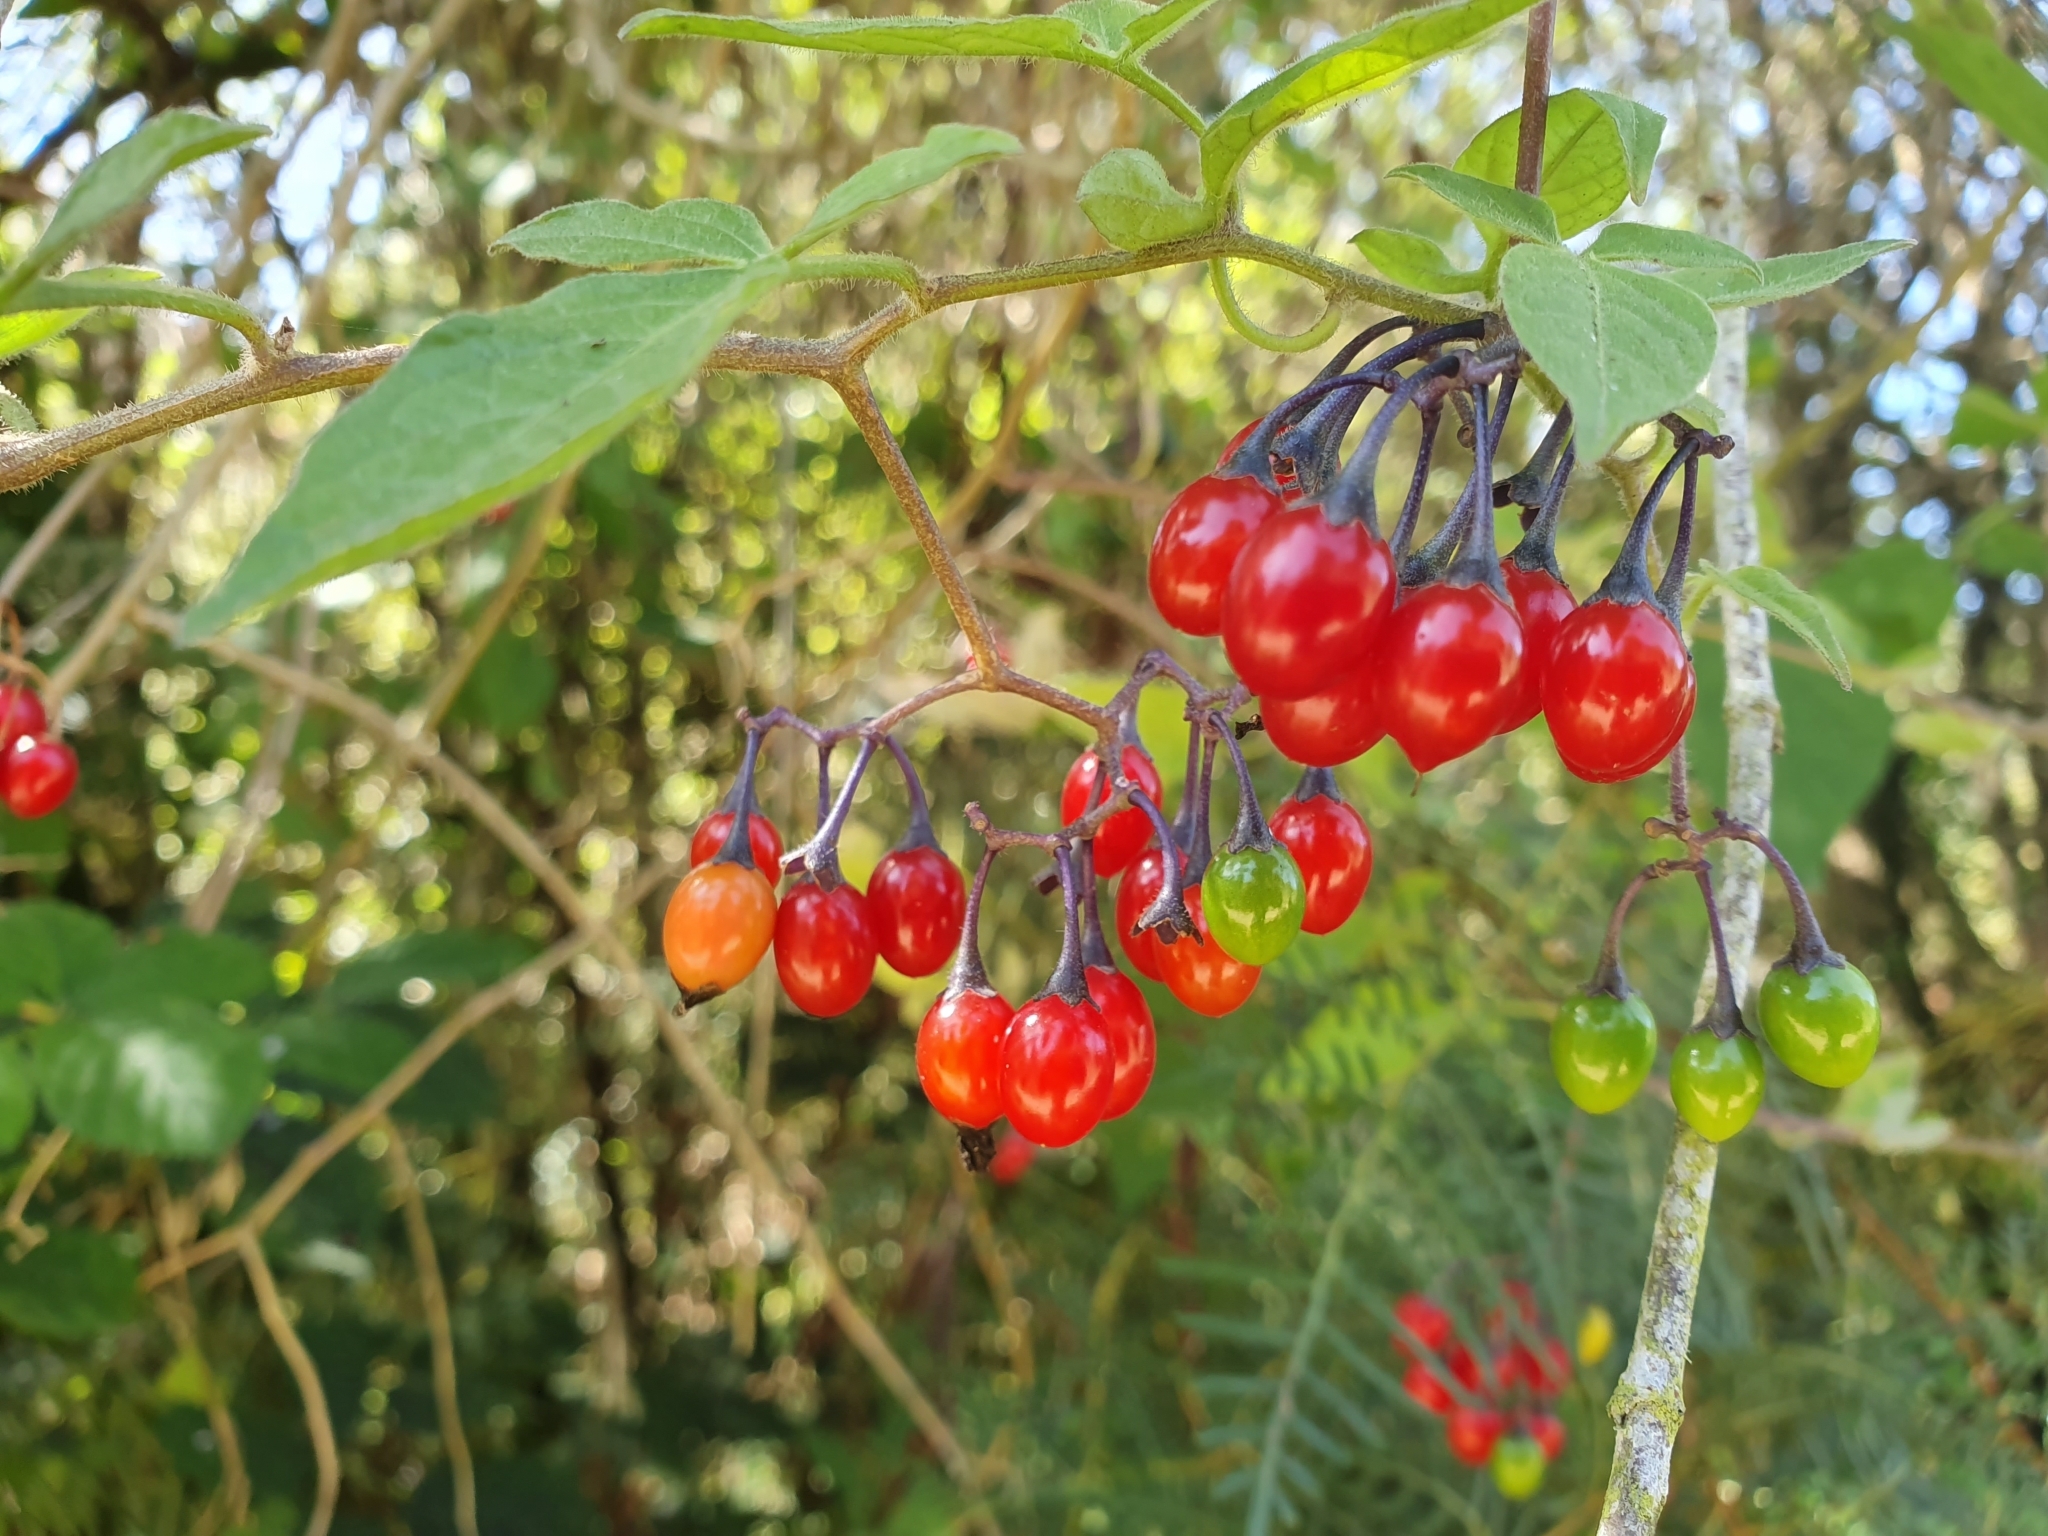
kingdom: Plantae
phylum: Tracheophyta
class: Magnoliopsida
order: Solanales
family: Solanaceae
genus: Solanum
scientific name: Solanum dulcamara
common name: Climbing nightshade
